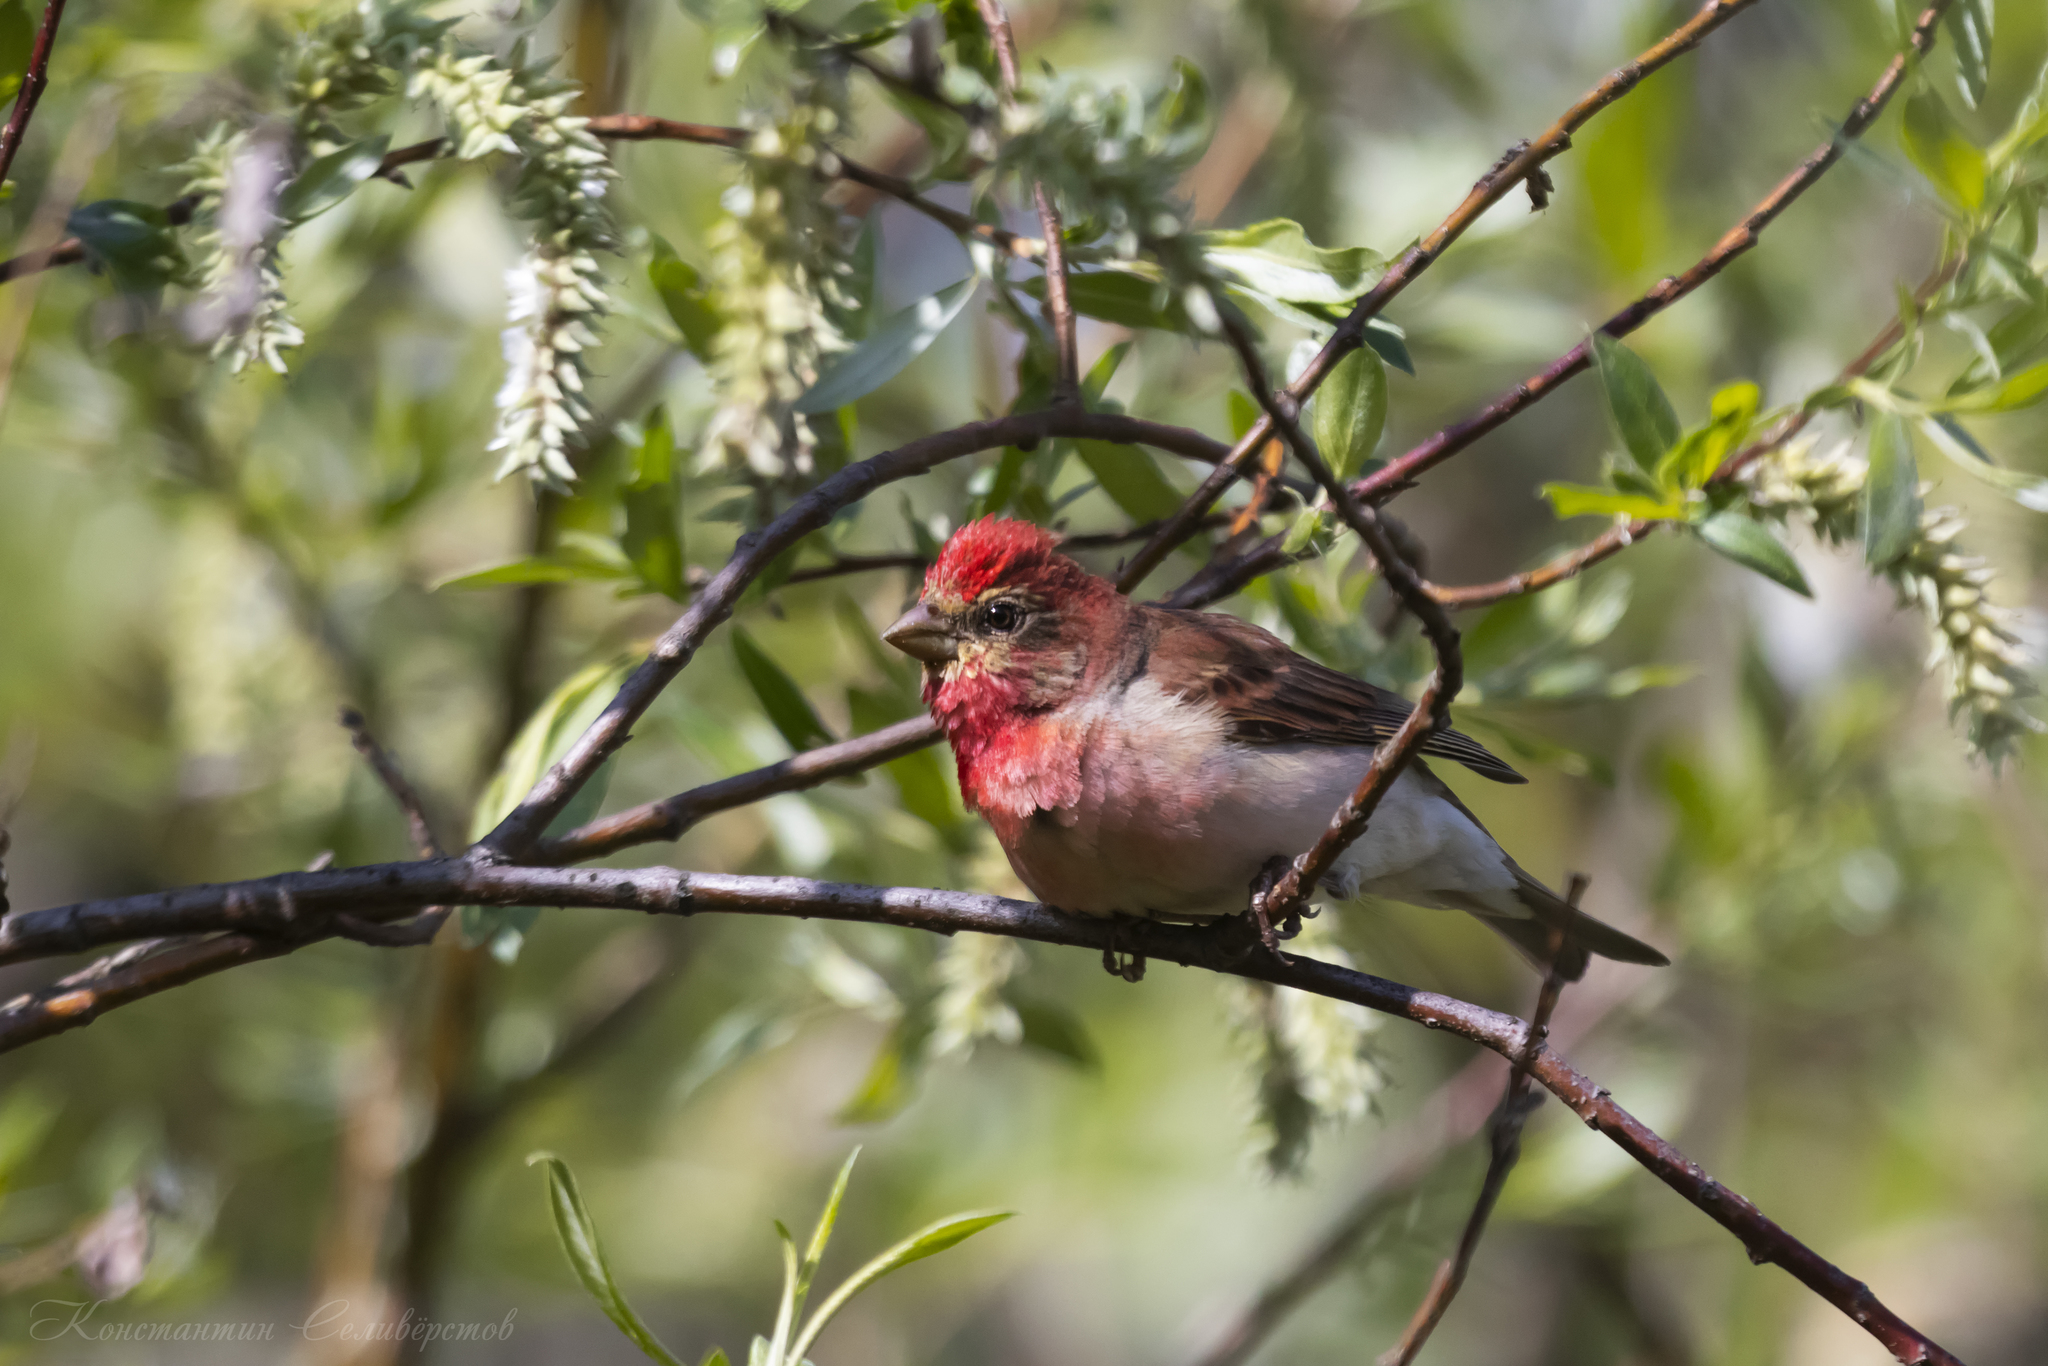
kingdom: Animalia
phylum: Chordata
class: Aves
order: Passeriformes
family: Fringillidae
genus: Carpodacus
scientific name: Carpodacus erythrinus
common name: Common rosefinch
